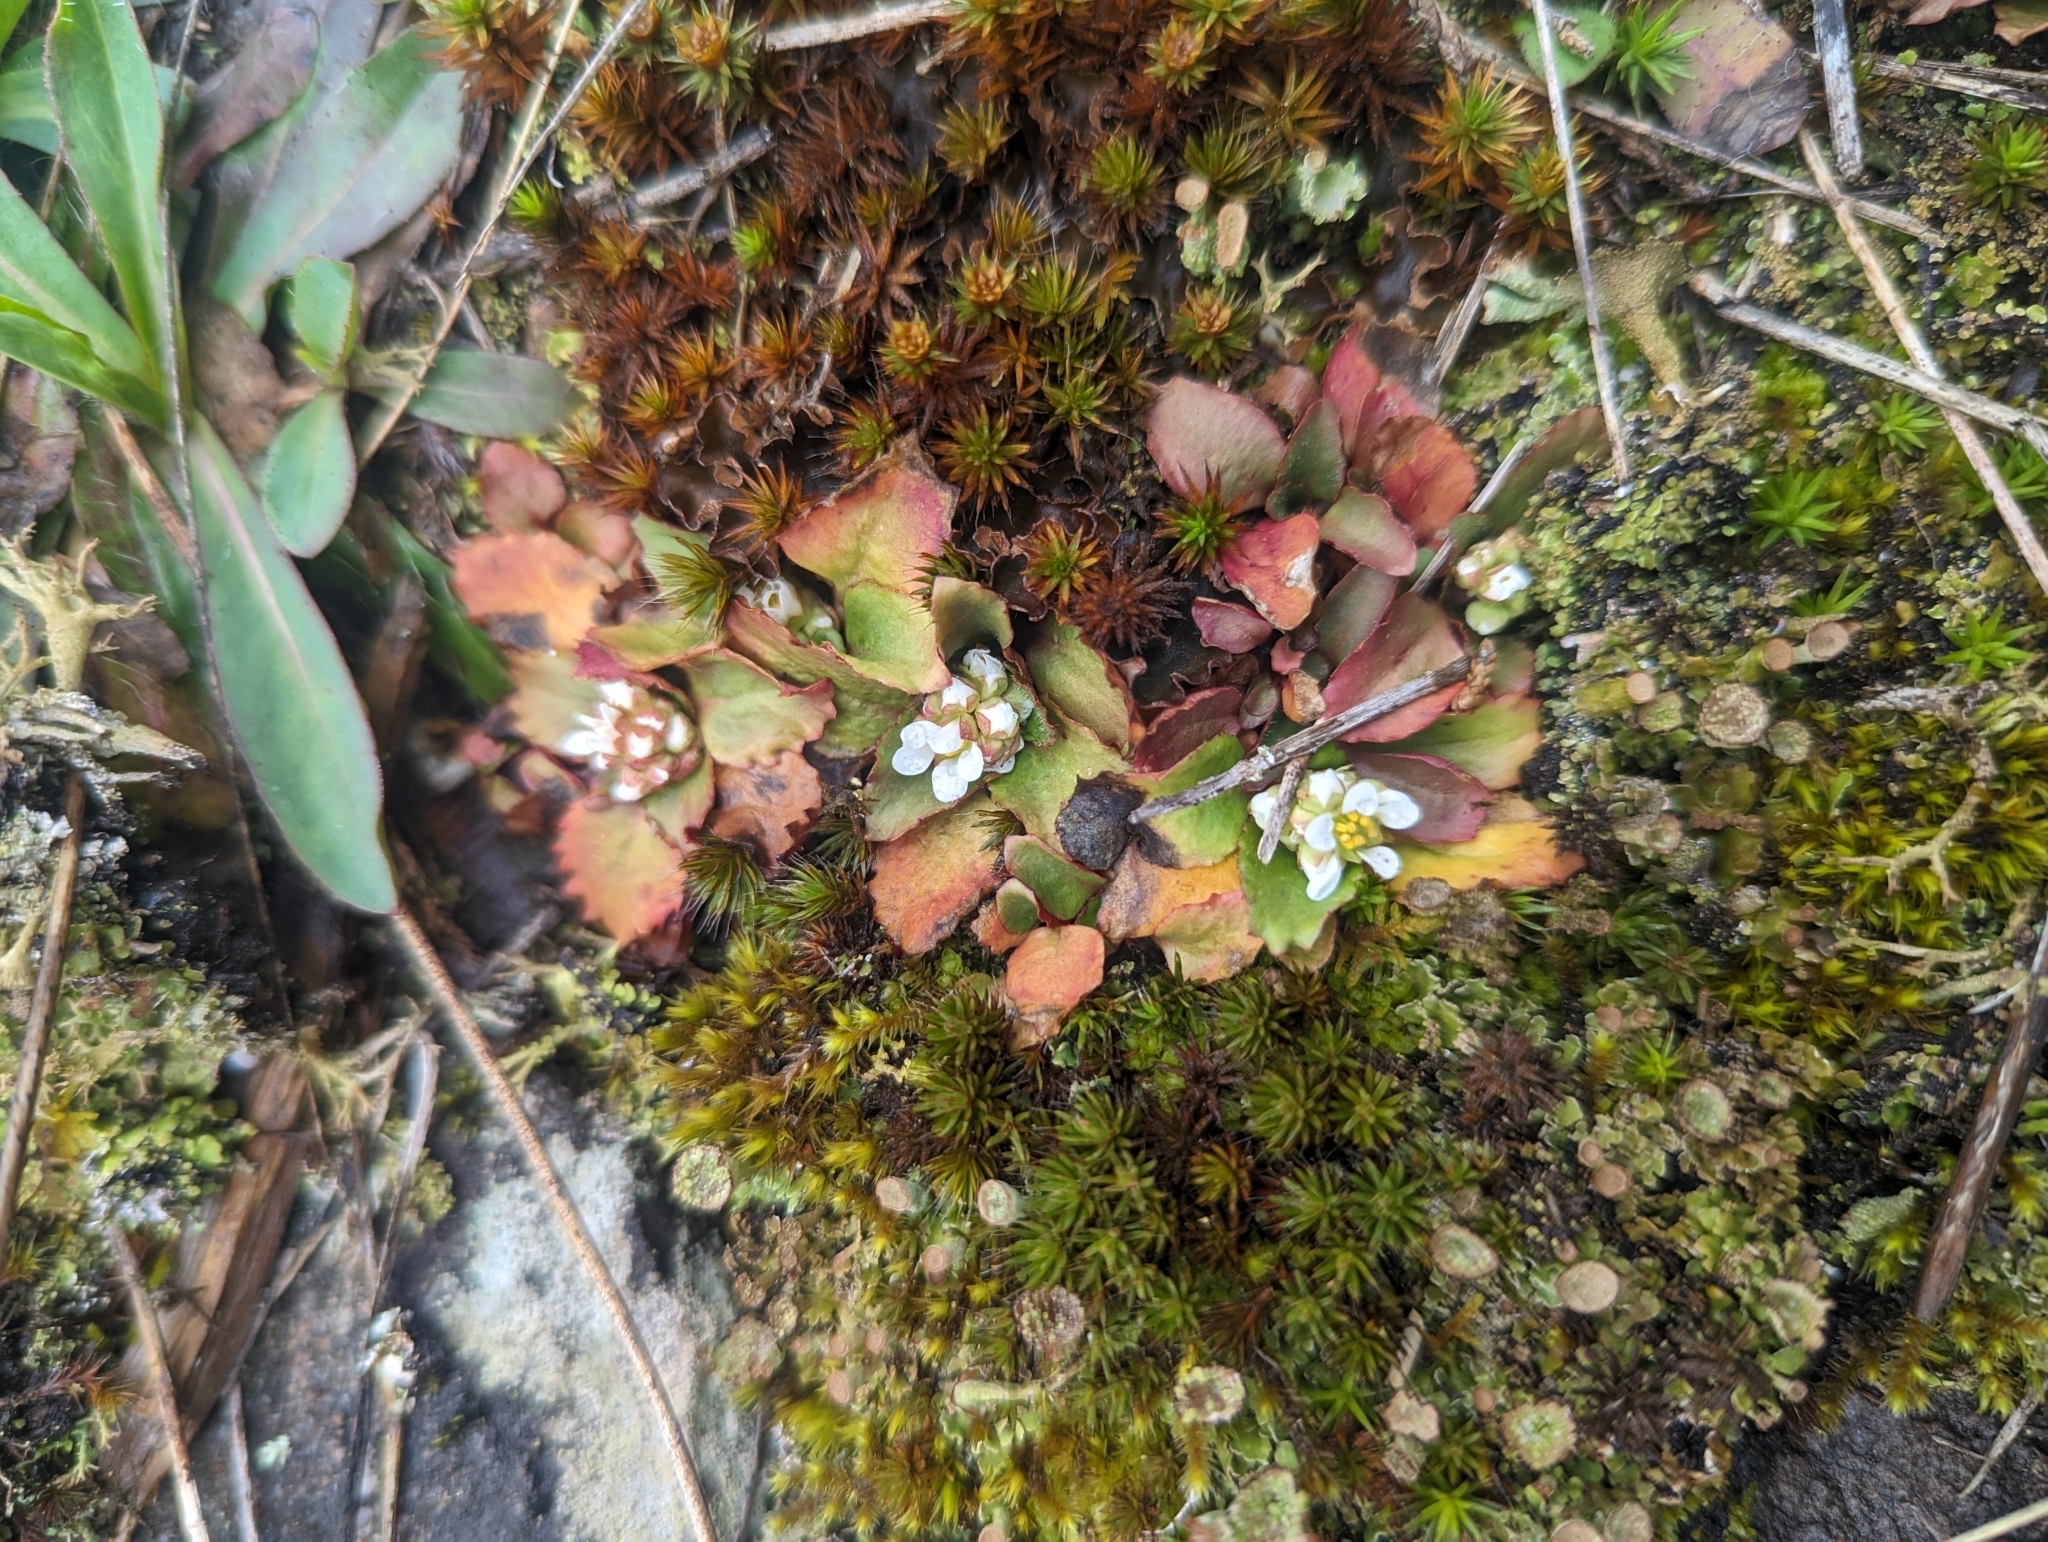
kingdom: Plantae
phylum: Tracheophyta
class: Magnoliopsida
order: Saxifragales
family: Saxifragaceae
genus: Micranthes
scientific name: Micranthes virginiensis
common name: Early saxifrage
